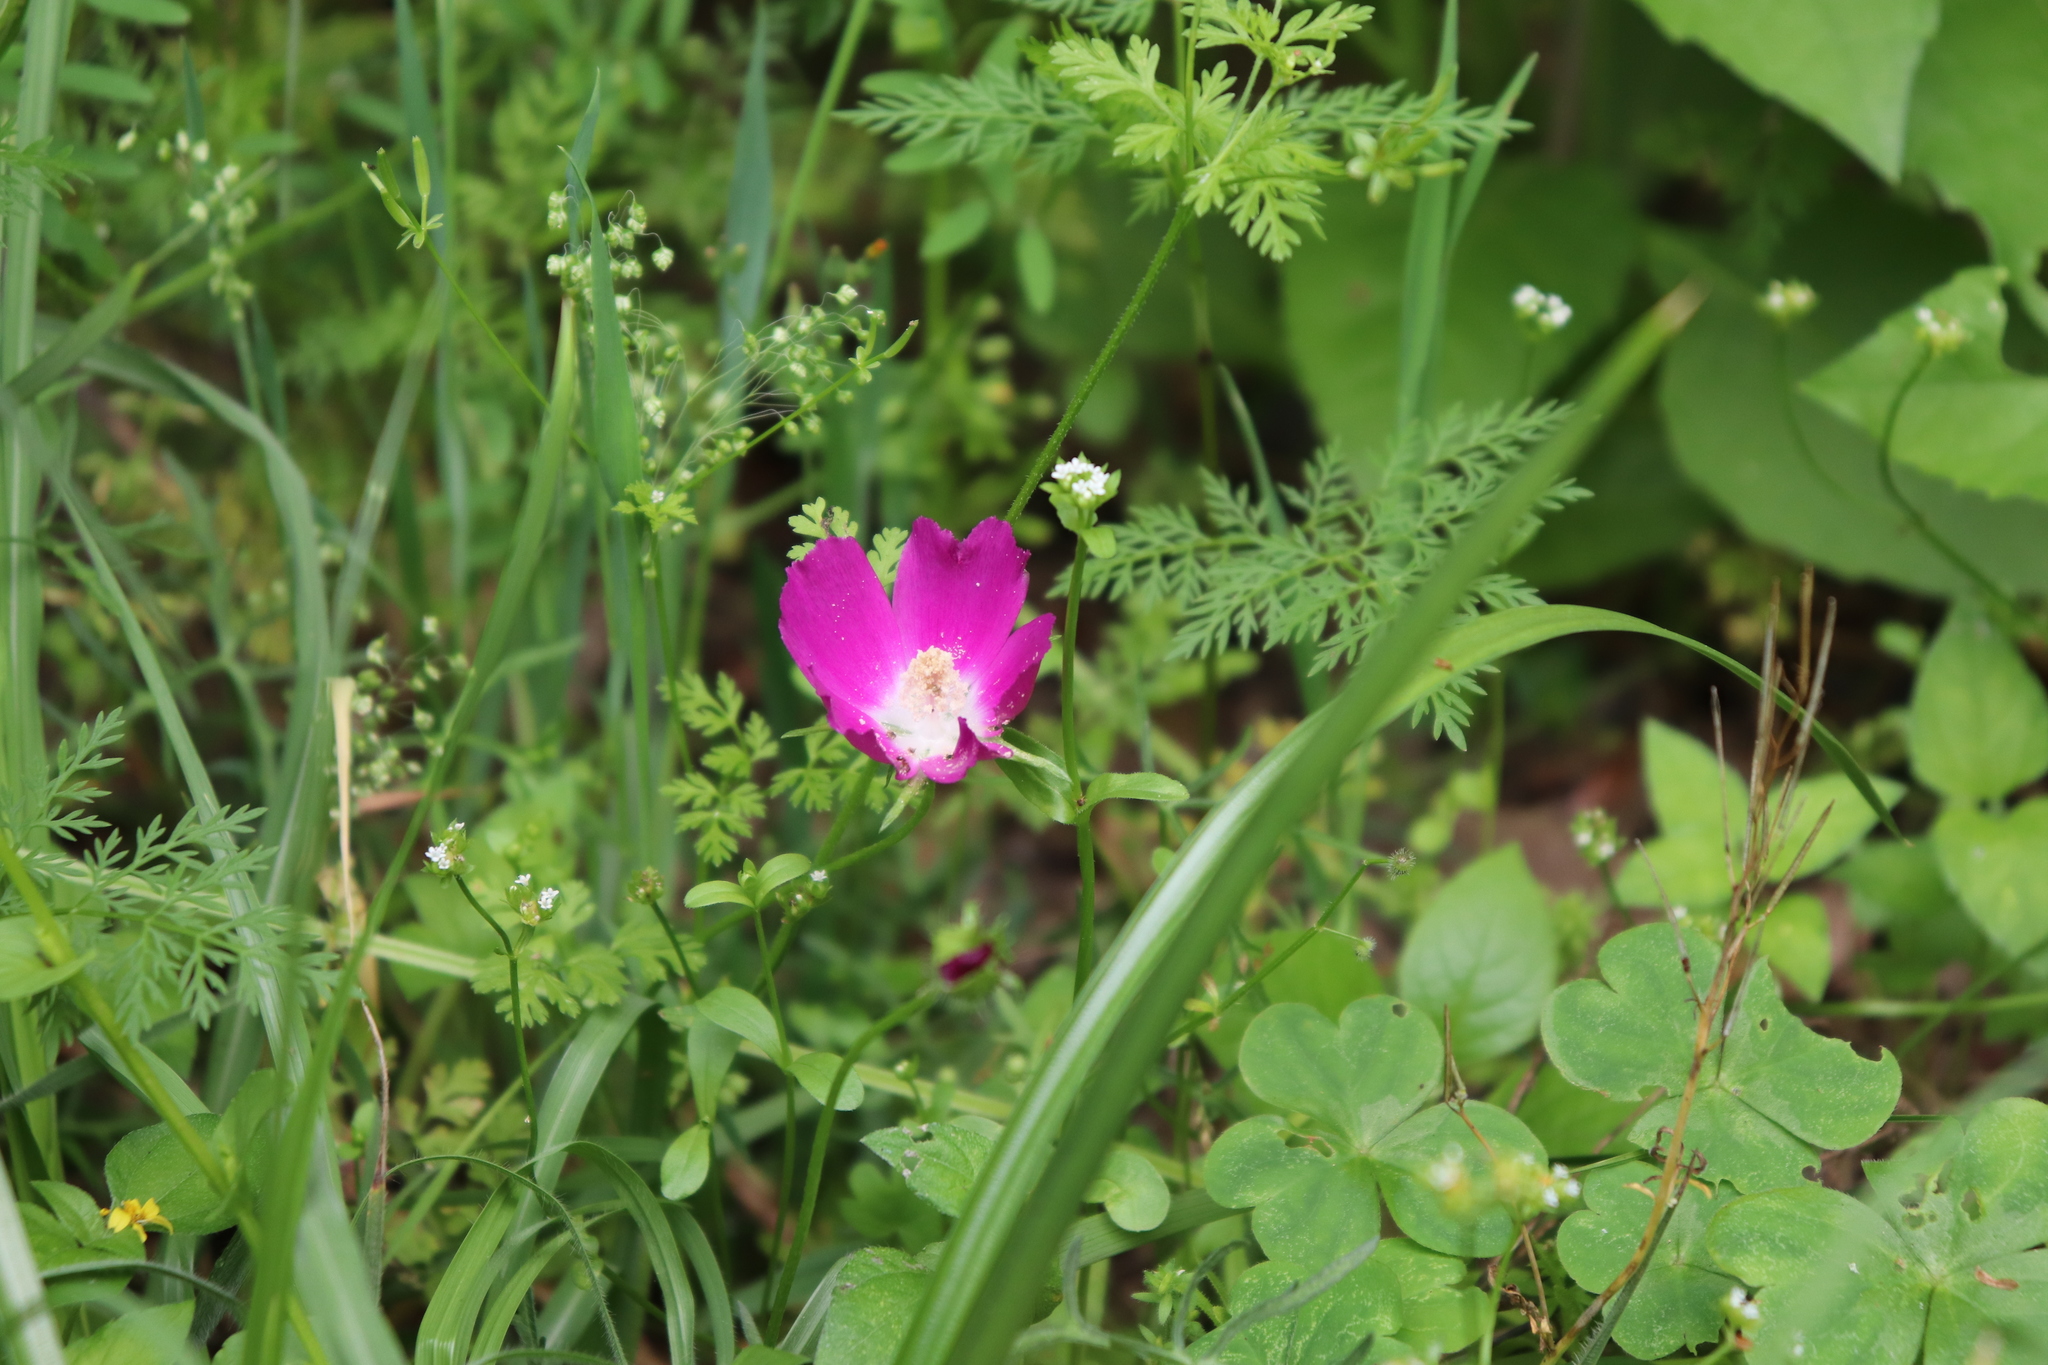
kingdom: Plantae
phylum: Tracheophyta
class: Magnoliopsida
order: Malvales
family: Malvaceae
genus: Callirhoe
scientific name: Callirhoe involucrata
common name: Purple poppy-mallow
